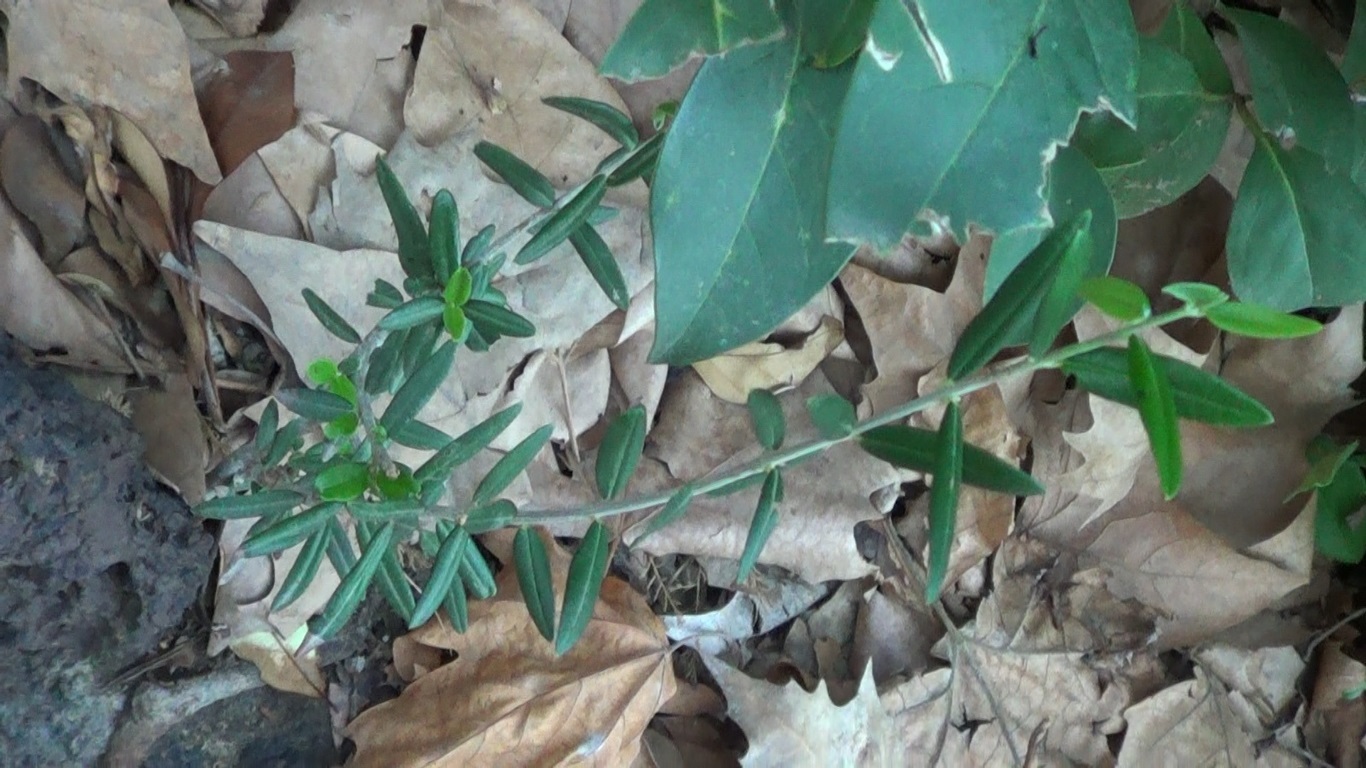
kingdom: Plantae
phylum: Tracheophyta
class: Magnoliopsida
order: Lamiales
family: Oleaceae
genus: Olea
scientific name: Olea europaea
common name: Olive
